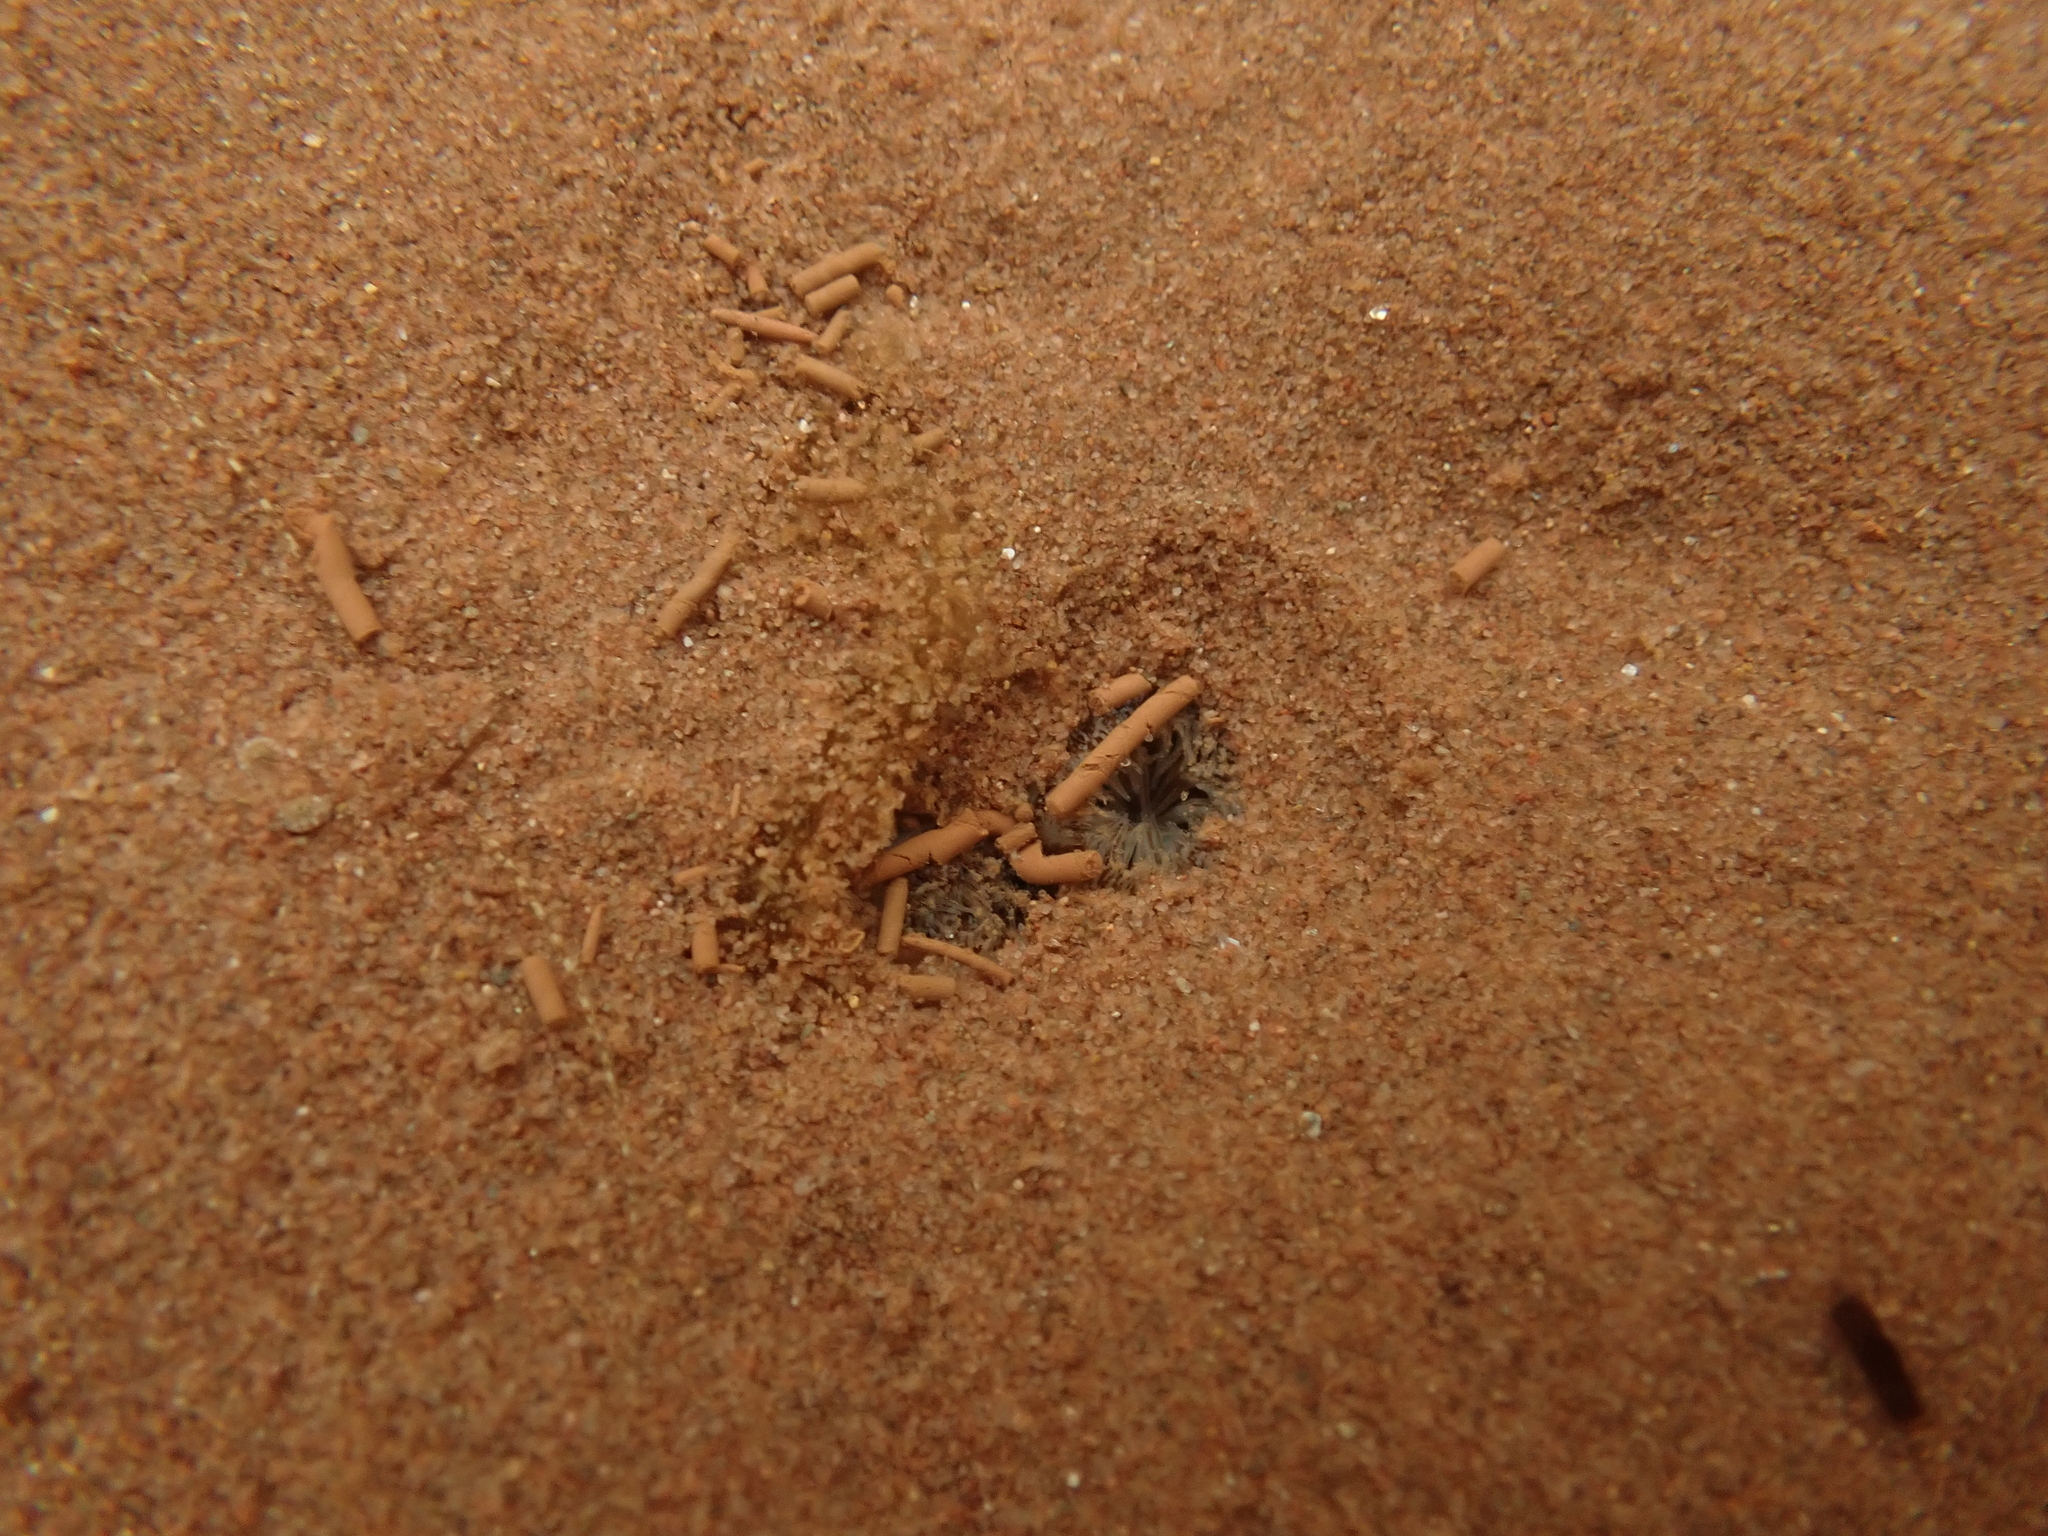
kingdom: Animalia
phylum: Mollusca
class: Bivalvia
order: Venerida
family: Mactridae
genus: Spisula
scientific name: Spisula solidissima
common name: Atlantic surf clam
